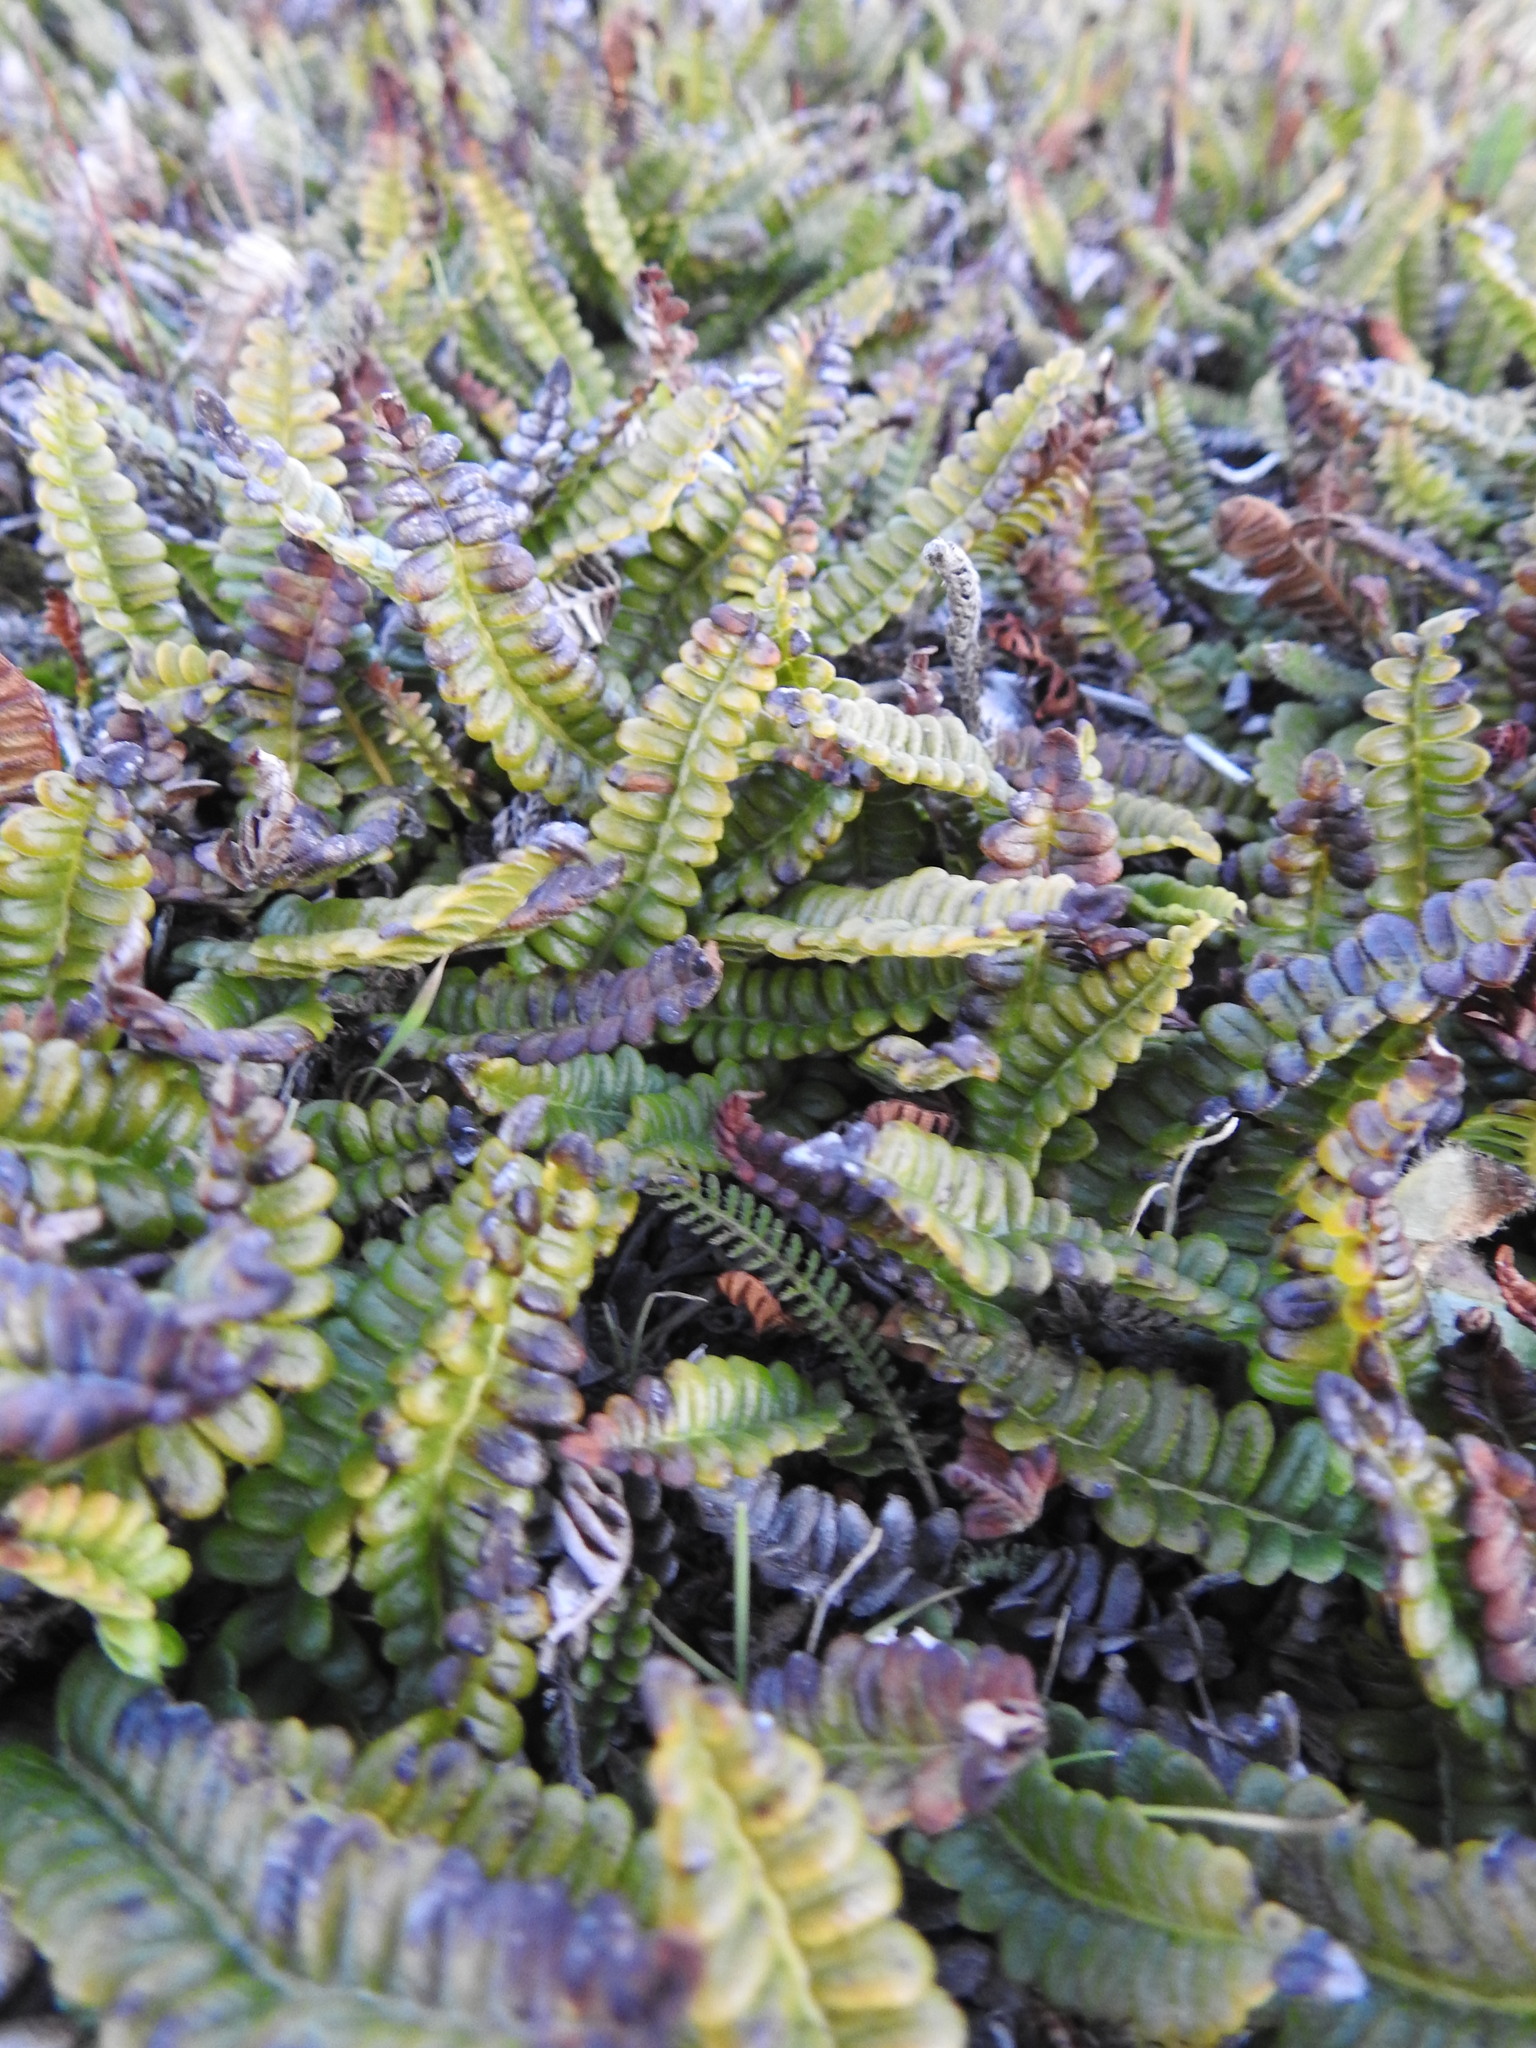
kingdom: Plantae
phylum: Tracheophyta
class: Polypodiopsida
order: Polypodiales
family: Blechnaceae
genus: Austroblechnum
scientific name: Austroblechnum penna-marina
